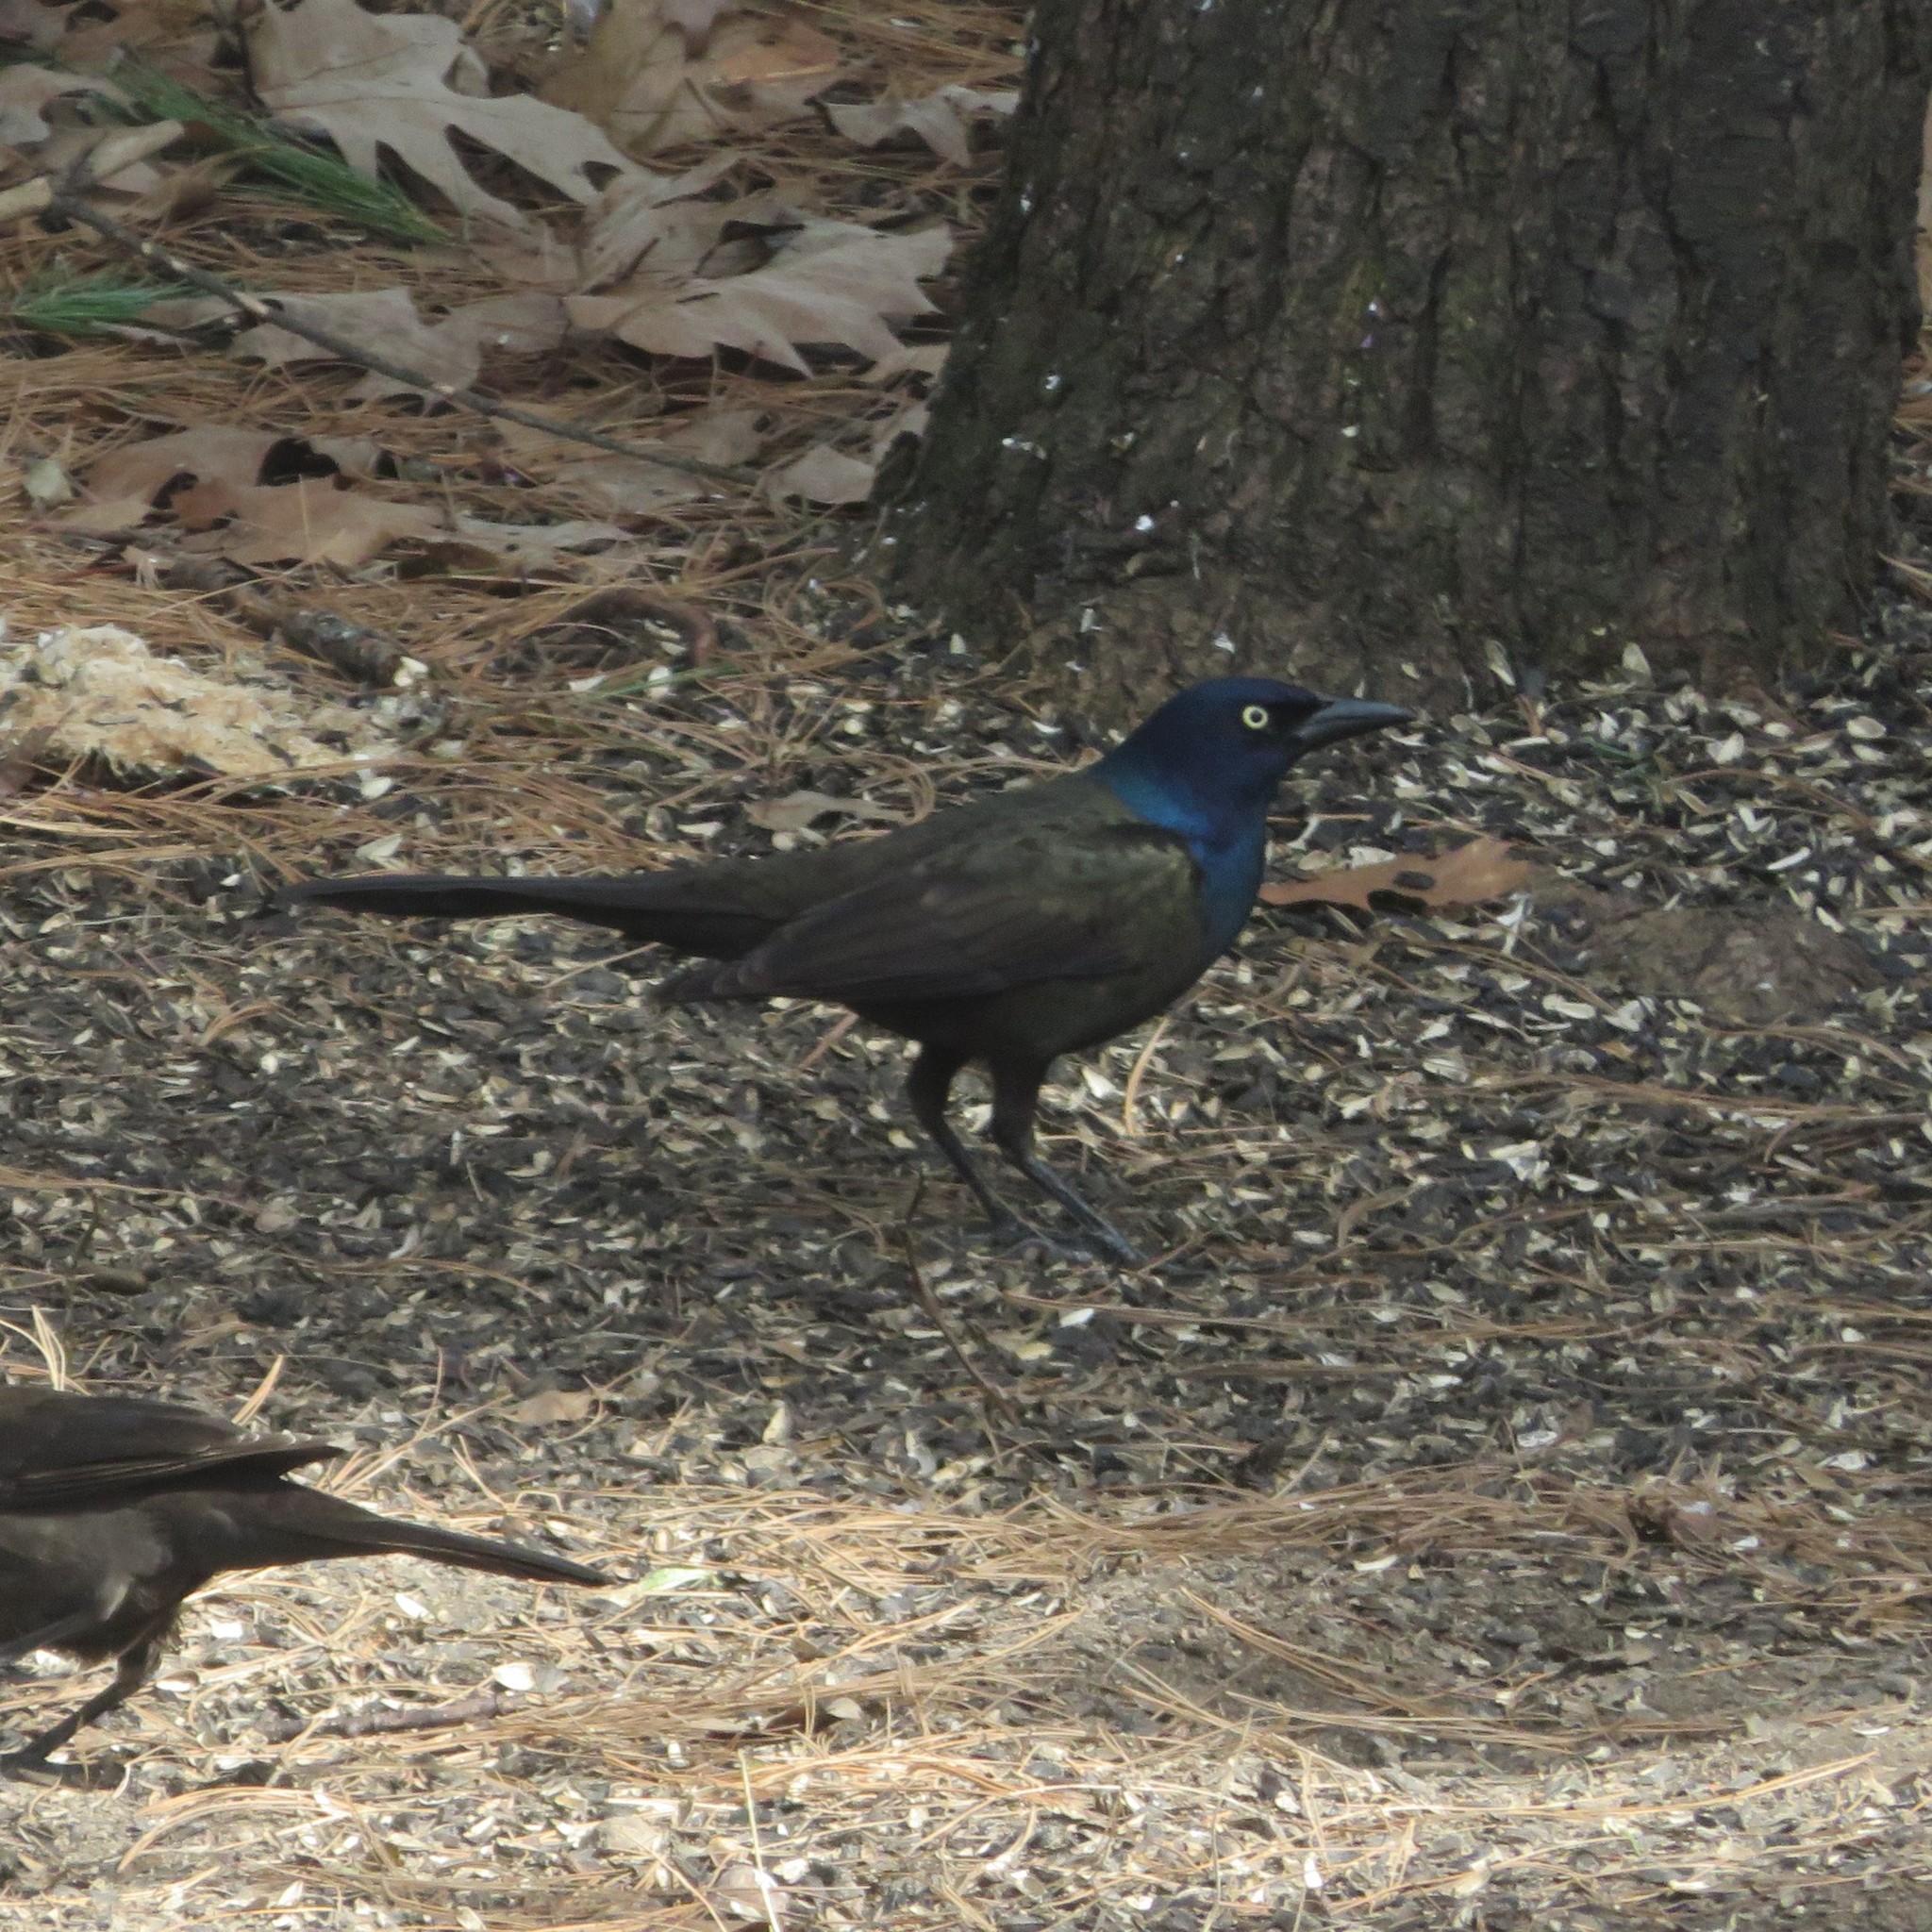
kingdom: Animalia
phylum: Chordata
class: Aves
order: Passeriformes
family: Icteridae
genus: Quiscalus
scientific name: Quiscalus quiscula
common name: Common grackle
